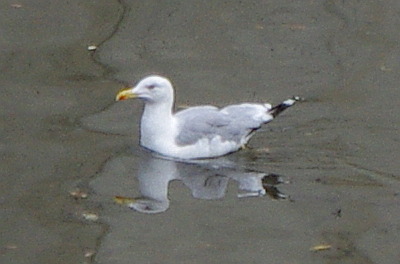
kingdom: Animalia
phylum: Chordata
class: Aves
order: Charadriiformes
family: Laridae
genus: Larus
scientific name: Larus argentatus
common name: Herring gull
